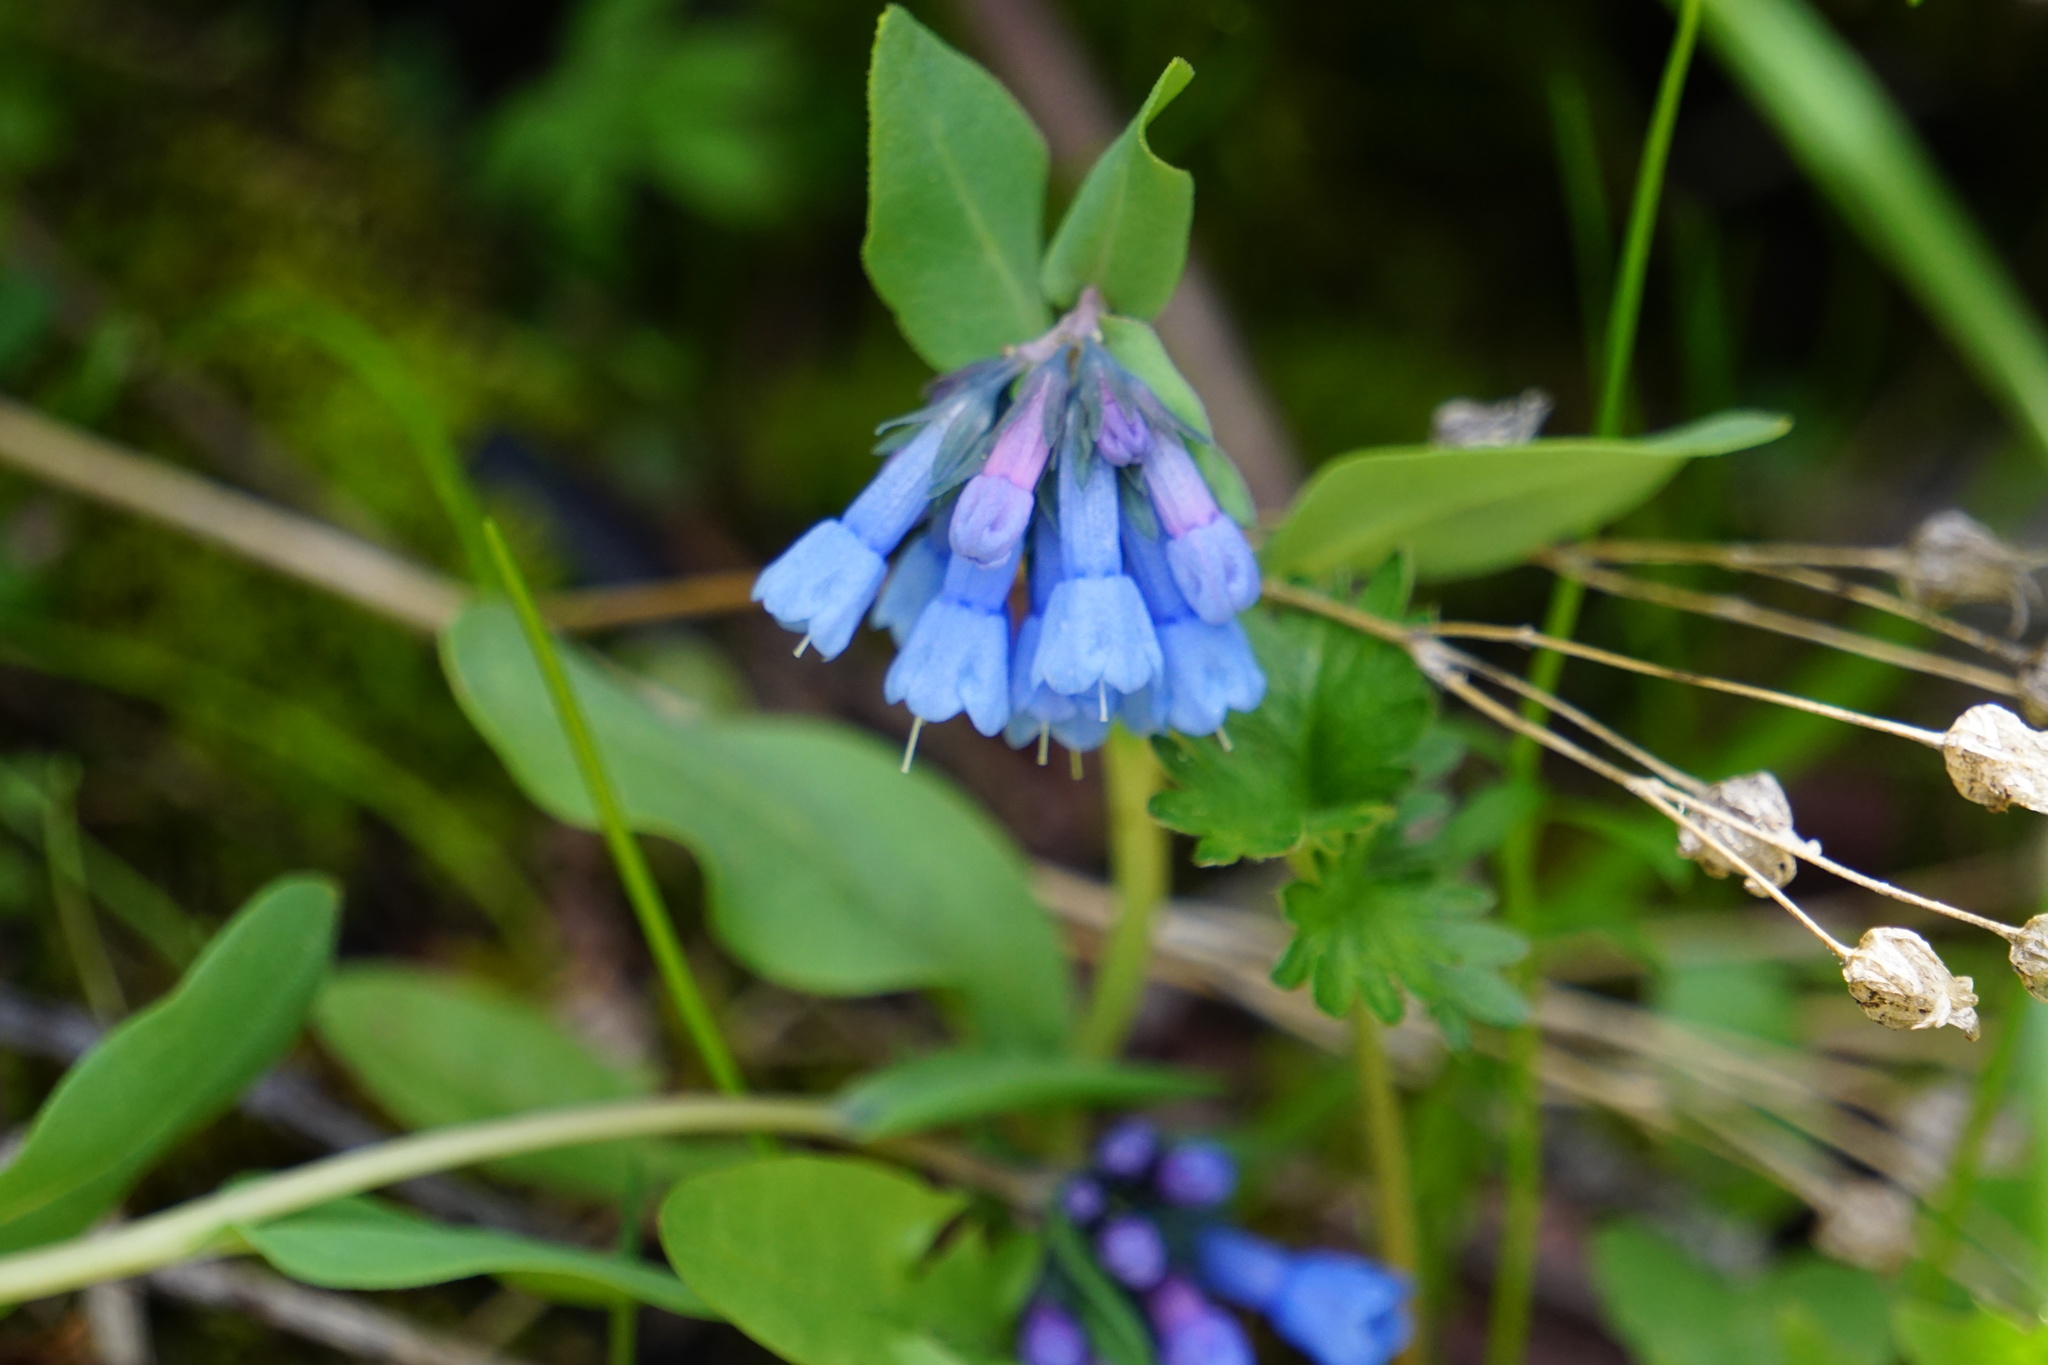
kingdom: Plantae
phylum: Tracheophyta
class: Magnoliopsida
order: Boraginales
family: Boraginaceae
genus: Mertensia
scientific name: Mertensia longiflora
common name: Large-flowered bluebells
